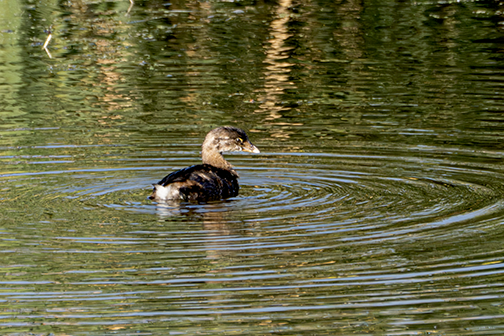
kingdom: Animalia
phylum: Chordata
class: Aves
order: Podicipediformes
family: Podicipedidae
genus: Podilymbus
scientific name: Podilymbus podiceps
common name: Pied-billed grebe
